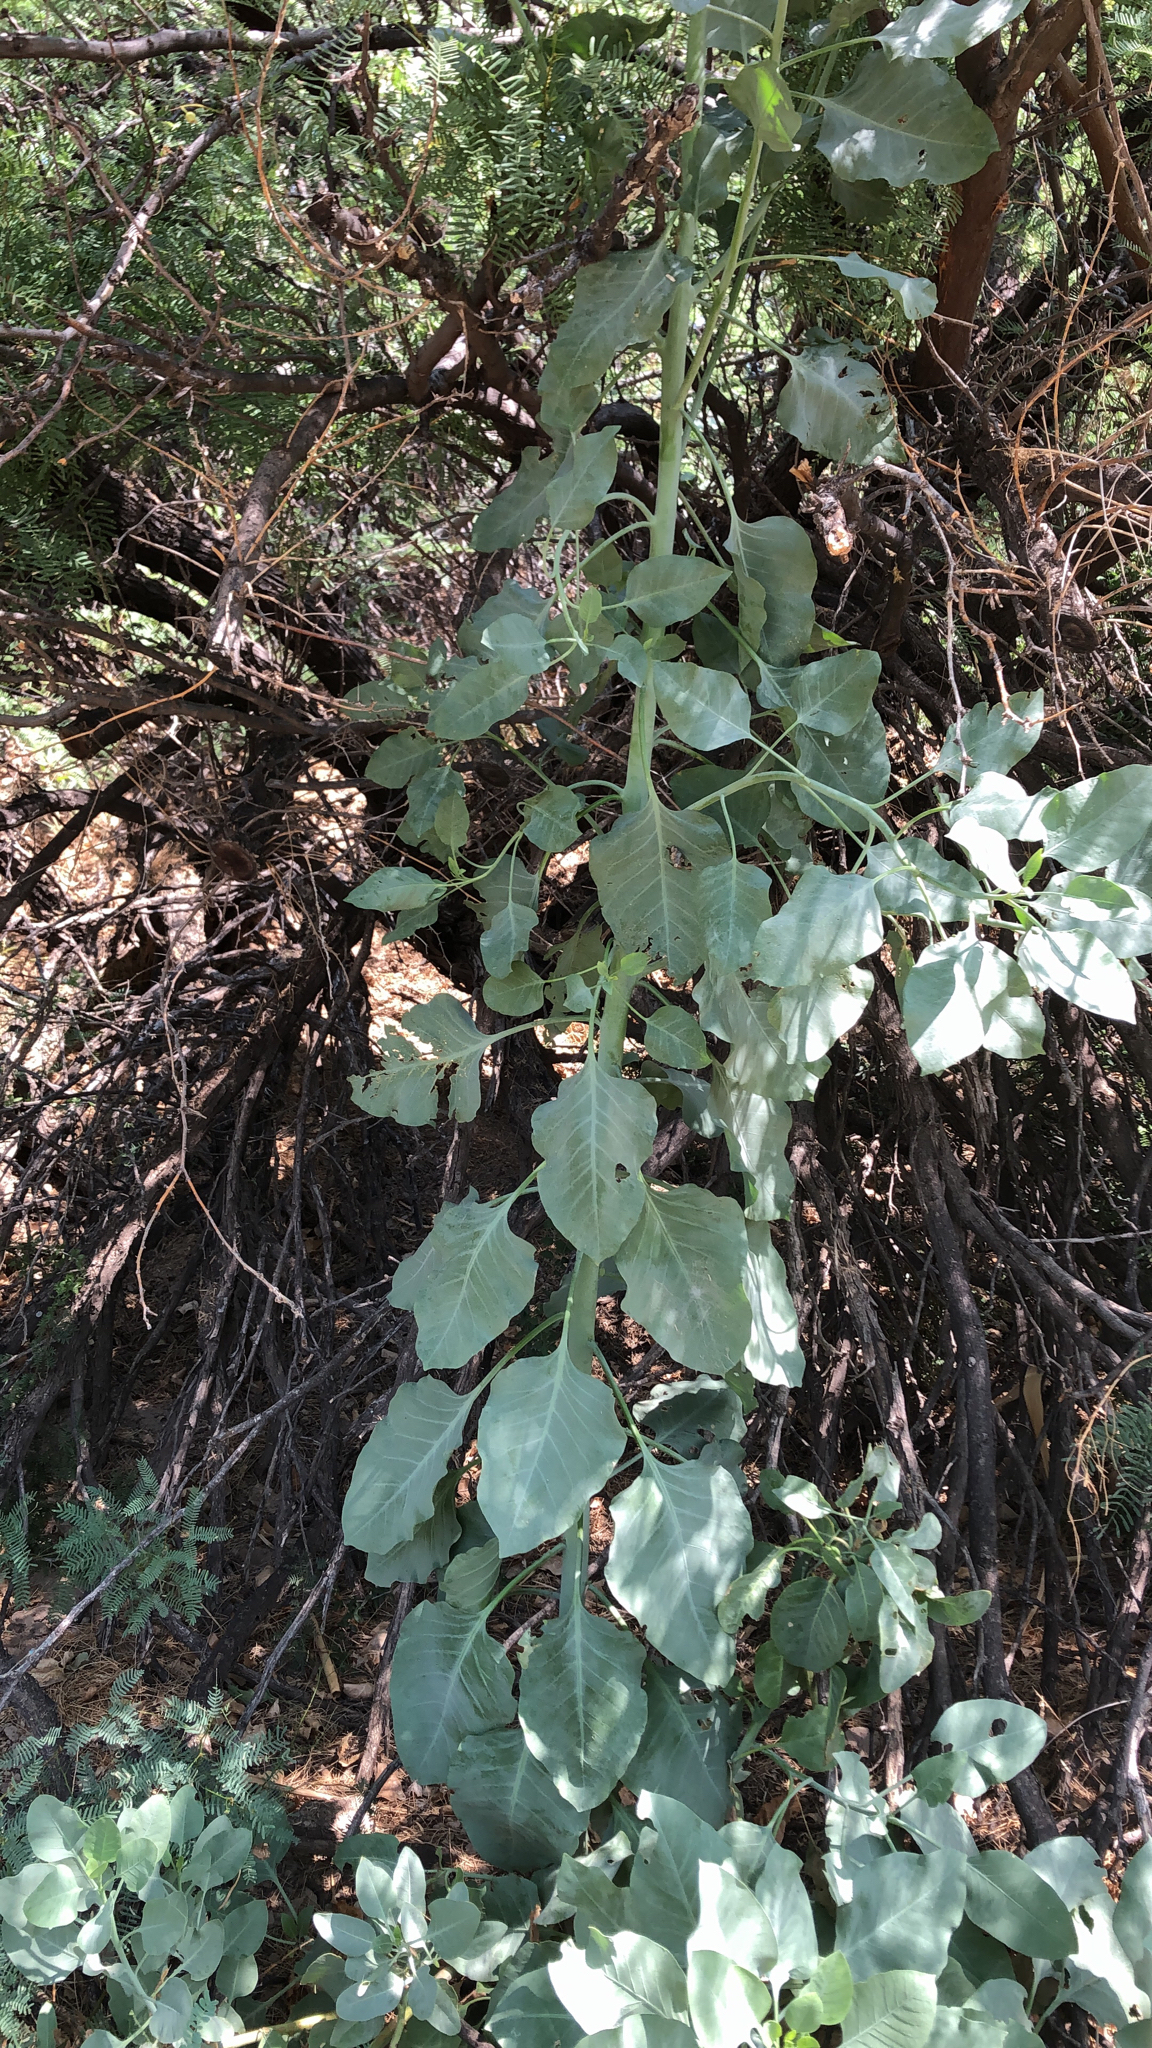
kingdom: Plantae
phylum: Tracheophyta
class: Magnoliopsida
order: Solanales
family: Solanaceae
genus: Nicotiana
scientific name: Nicotiana glauca
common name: Tree tobacco
